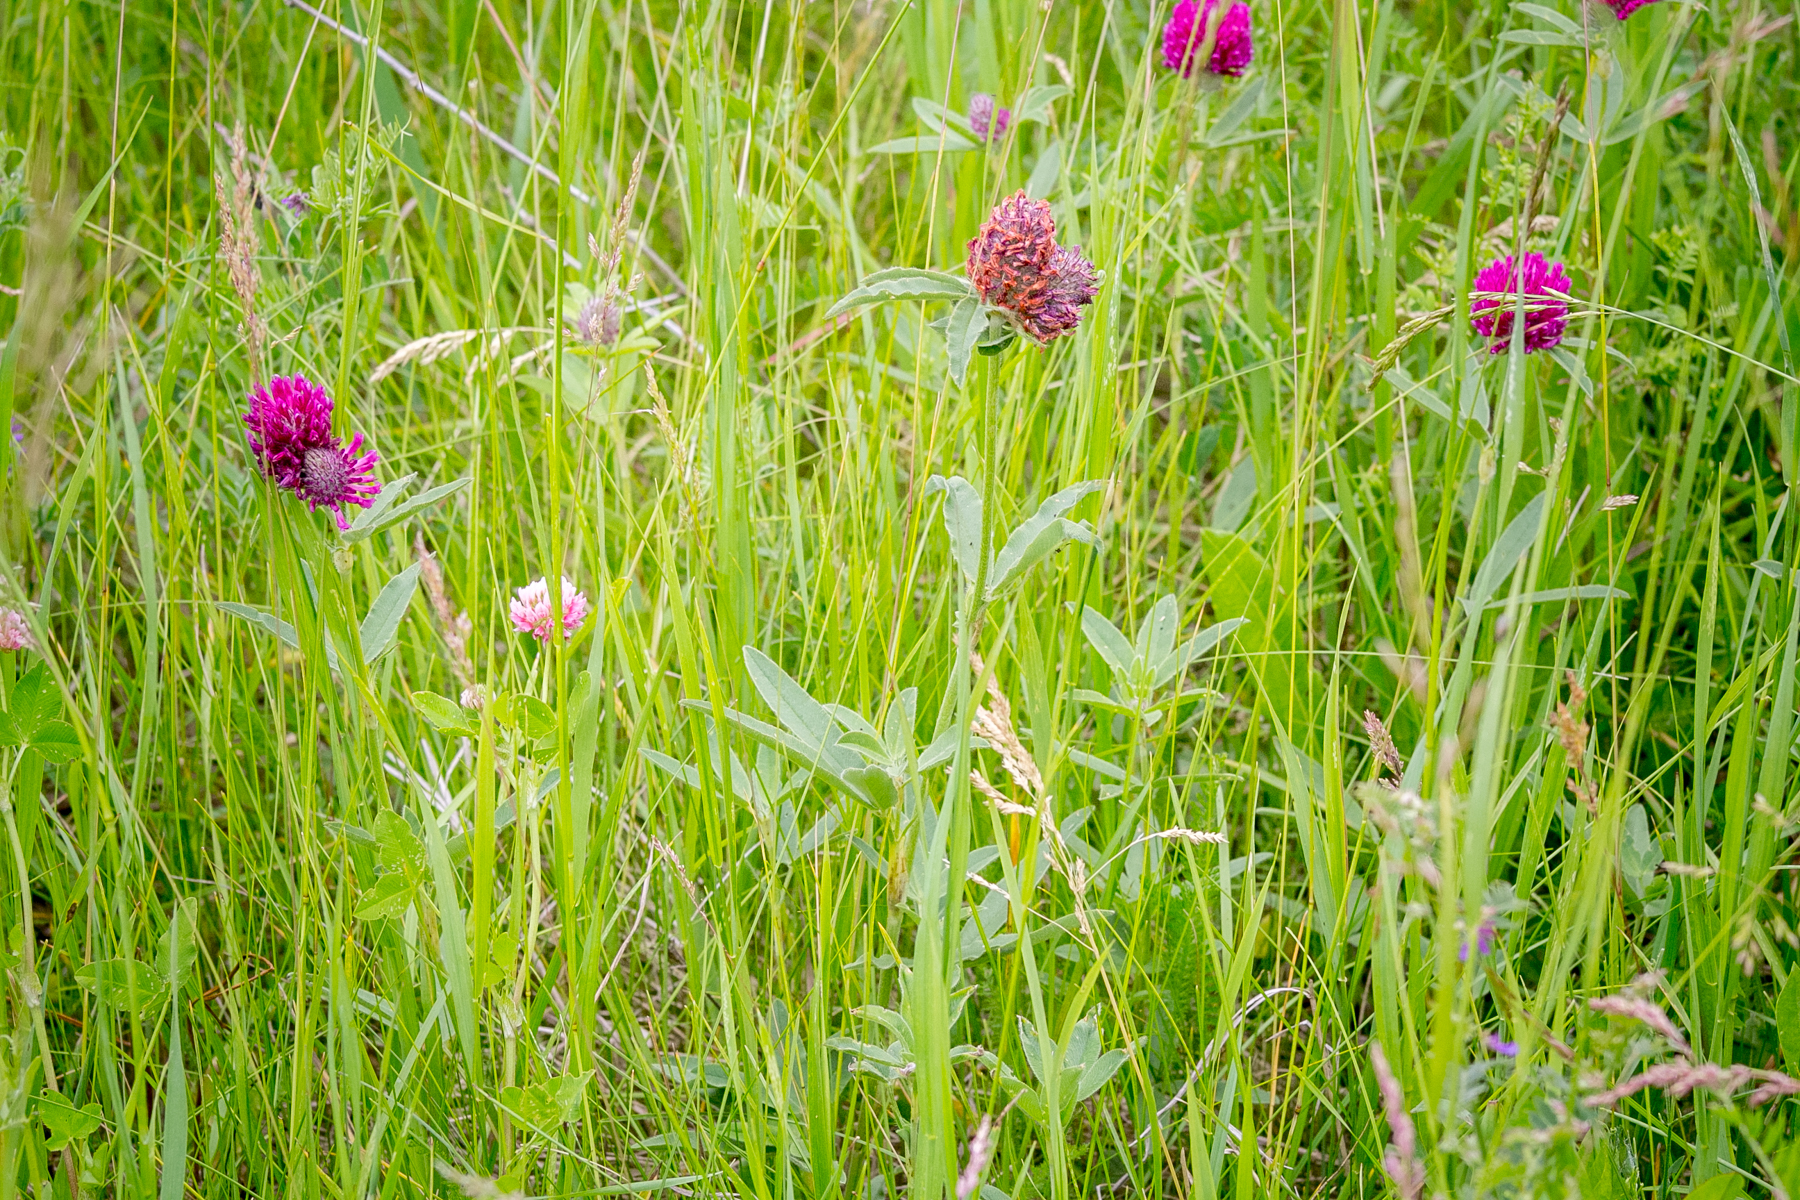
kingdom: Plantae
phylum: Tracheophyta
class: Magnoliopsida
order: Fabales
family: Fabaceae
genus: Trifolium
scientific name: Trifolium alpestre
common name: Owl-head clover
